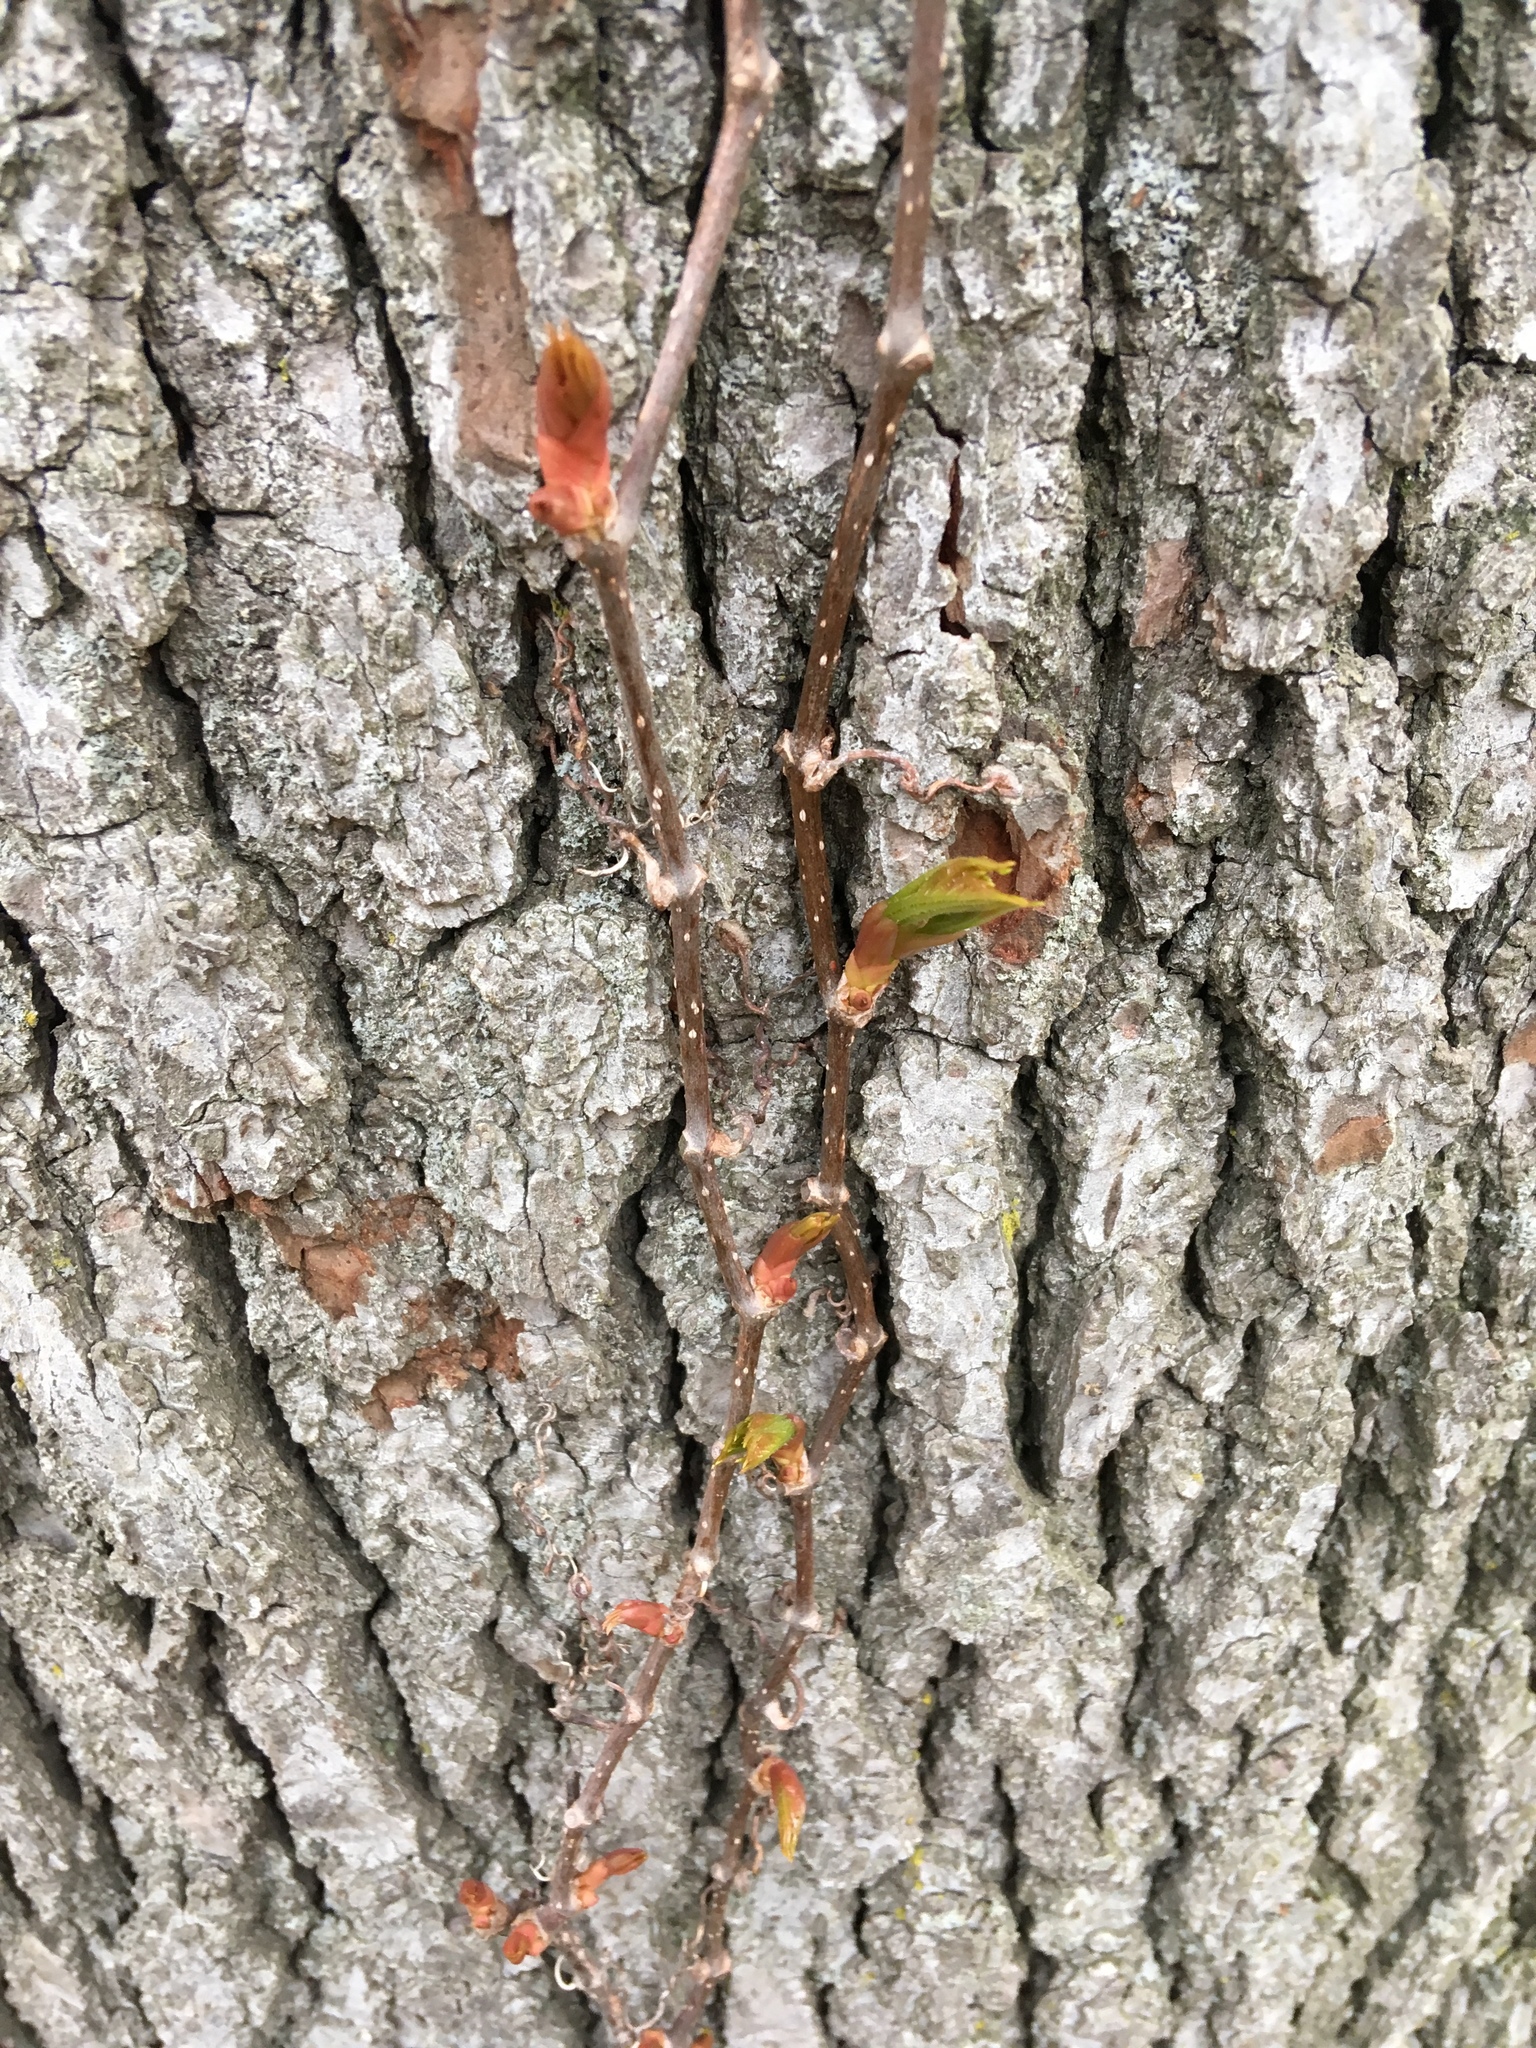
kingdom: Plantae
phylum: Tracheophyta
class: Magnoliopsida
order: Vitales
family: Vitaceae
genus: Parthenocissus
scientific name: Parthenocissus quinquefolia
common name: Virginia-creeper
